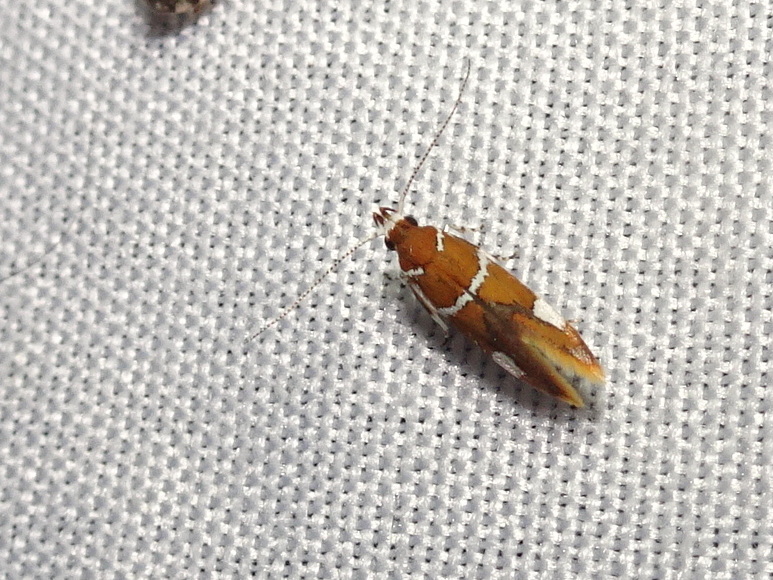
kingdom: Animalia
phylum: Arthropoda
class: Insecta
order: Lepidoptera
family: Oecophoridae
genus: Promalactis
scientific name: Promalactis suzukiella
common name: Moth
